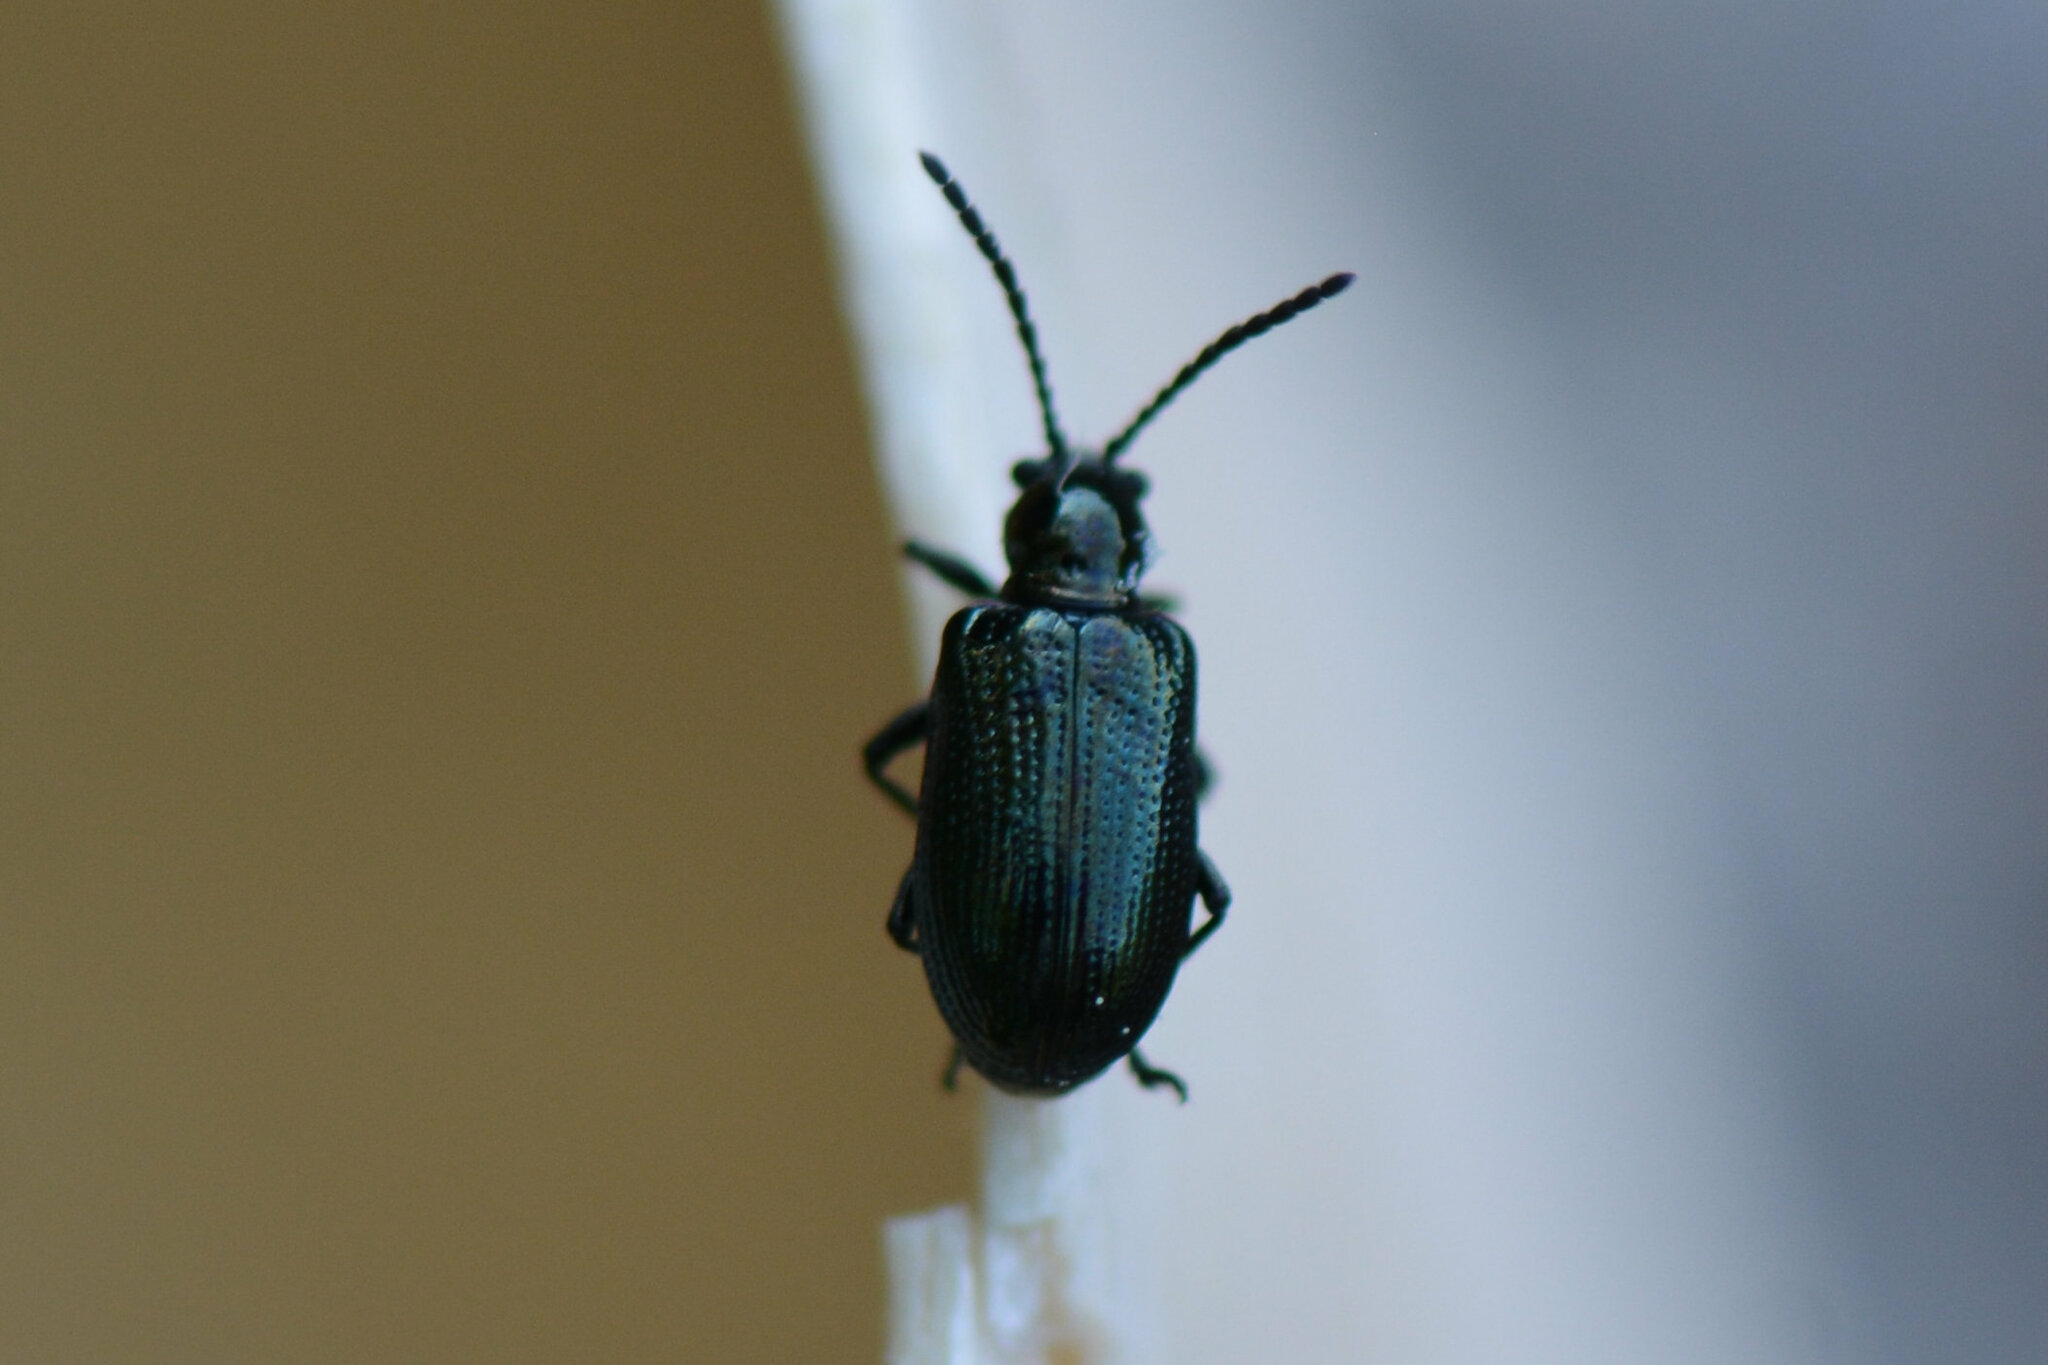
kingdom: Animalia
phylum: Arthropoda
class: Insecta
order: Coleoptera
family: Chrysomelidae
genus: Oulema
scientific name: Oulema gallaeciana
